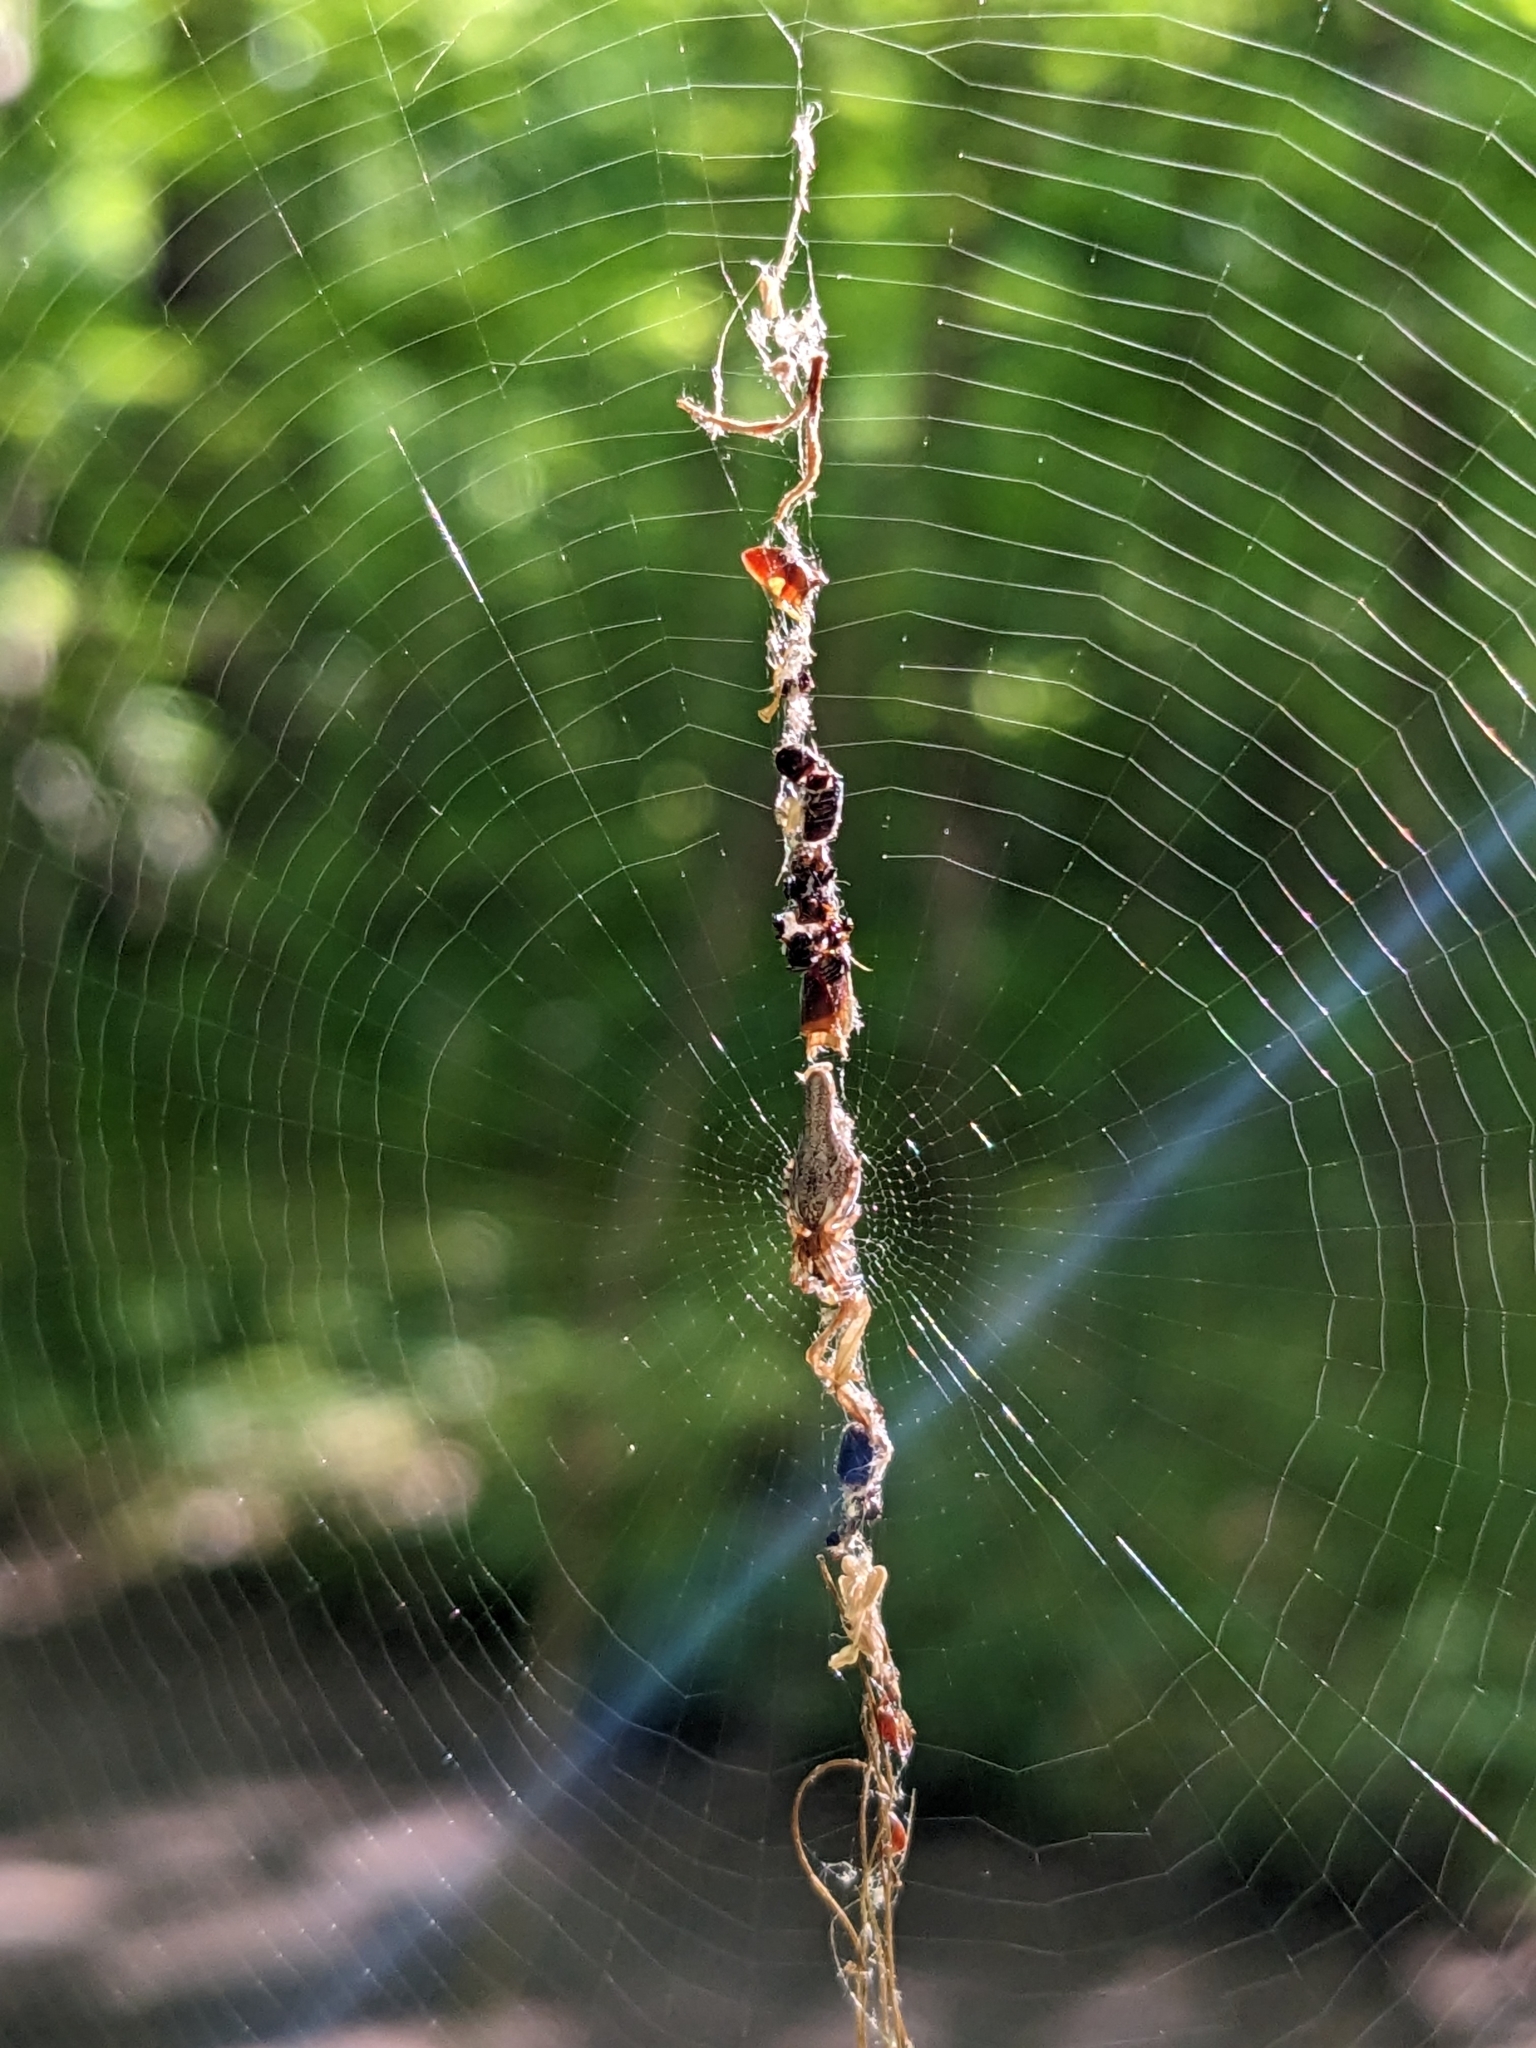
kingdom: Animalia
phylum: Arthropoda
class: Arachnida
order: Araneae
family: Araneidae
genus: Cyclosa
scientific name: Cyclosa conica
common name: Conical trashline orbweaver
